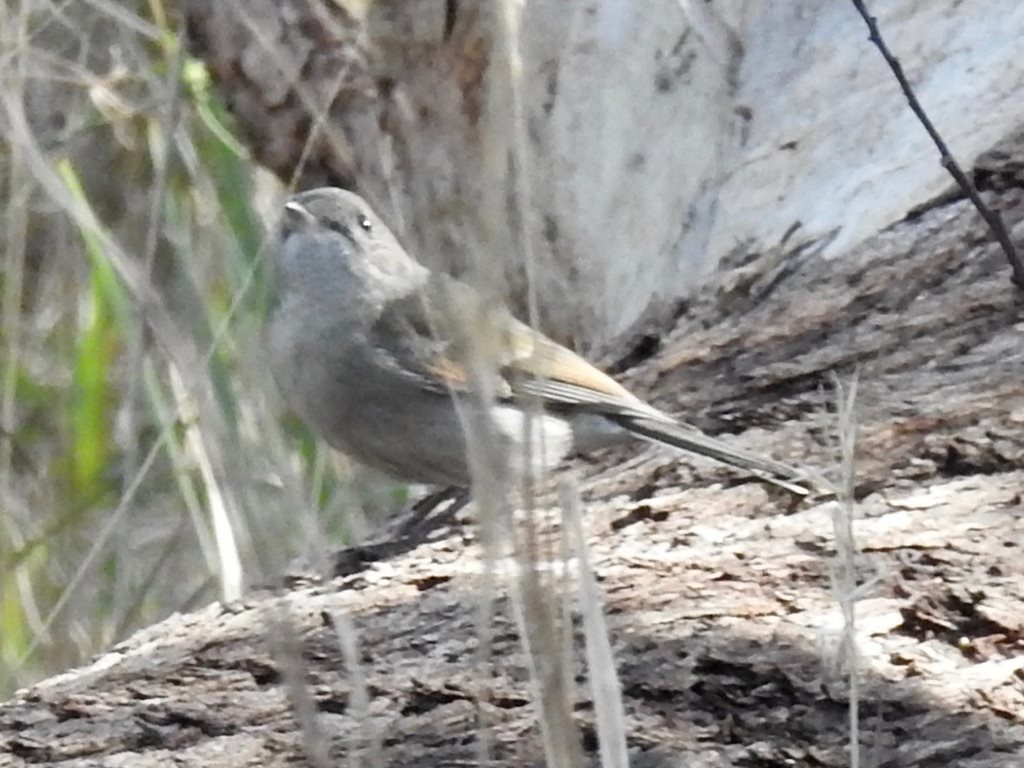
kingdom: Animalia
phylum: Chordata
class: Aves
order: Passeriformes
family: Pachycephalidae
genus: Colluricincla
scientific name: Colluricincla harmonica
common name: Grey shrikethrush
